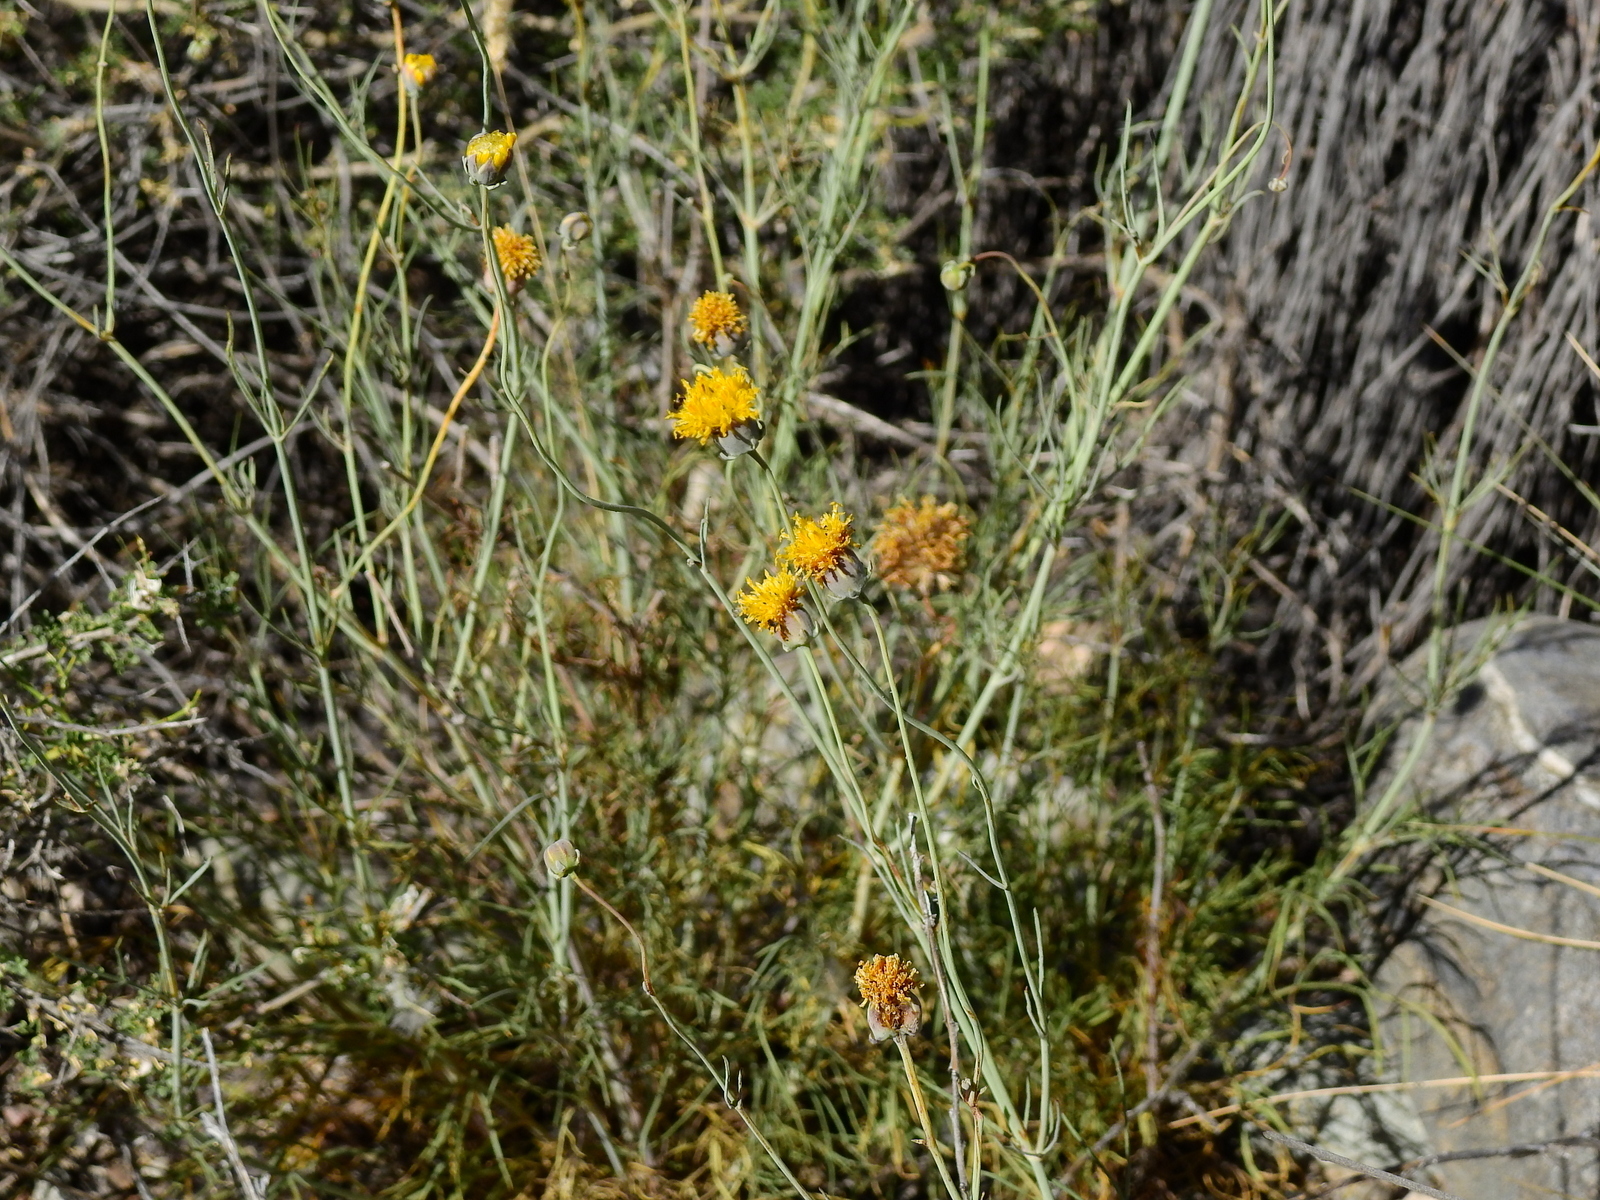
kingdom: Plantae
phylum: Tracheophyta
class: Magnoliopsida
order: Asterales
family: Asteraceae
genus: Thelesperma
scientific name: Thelesperma megapotamicum
